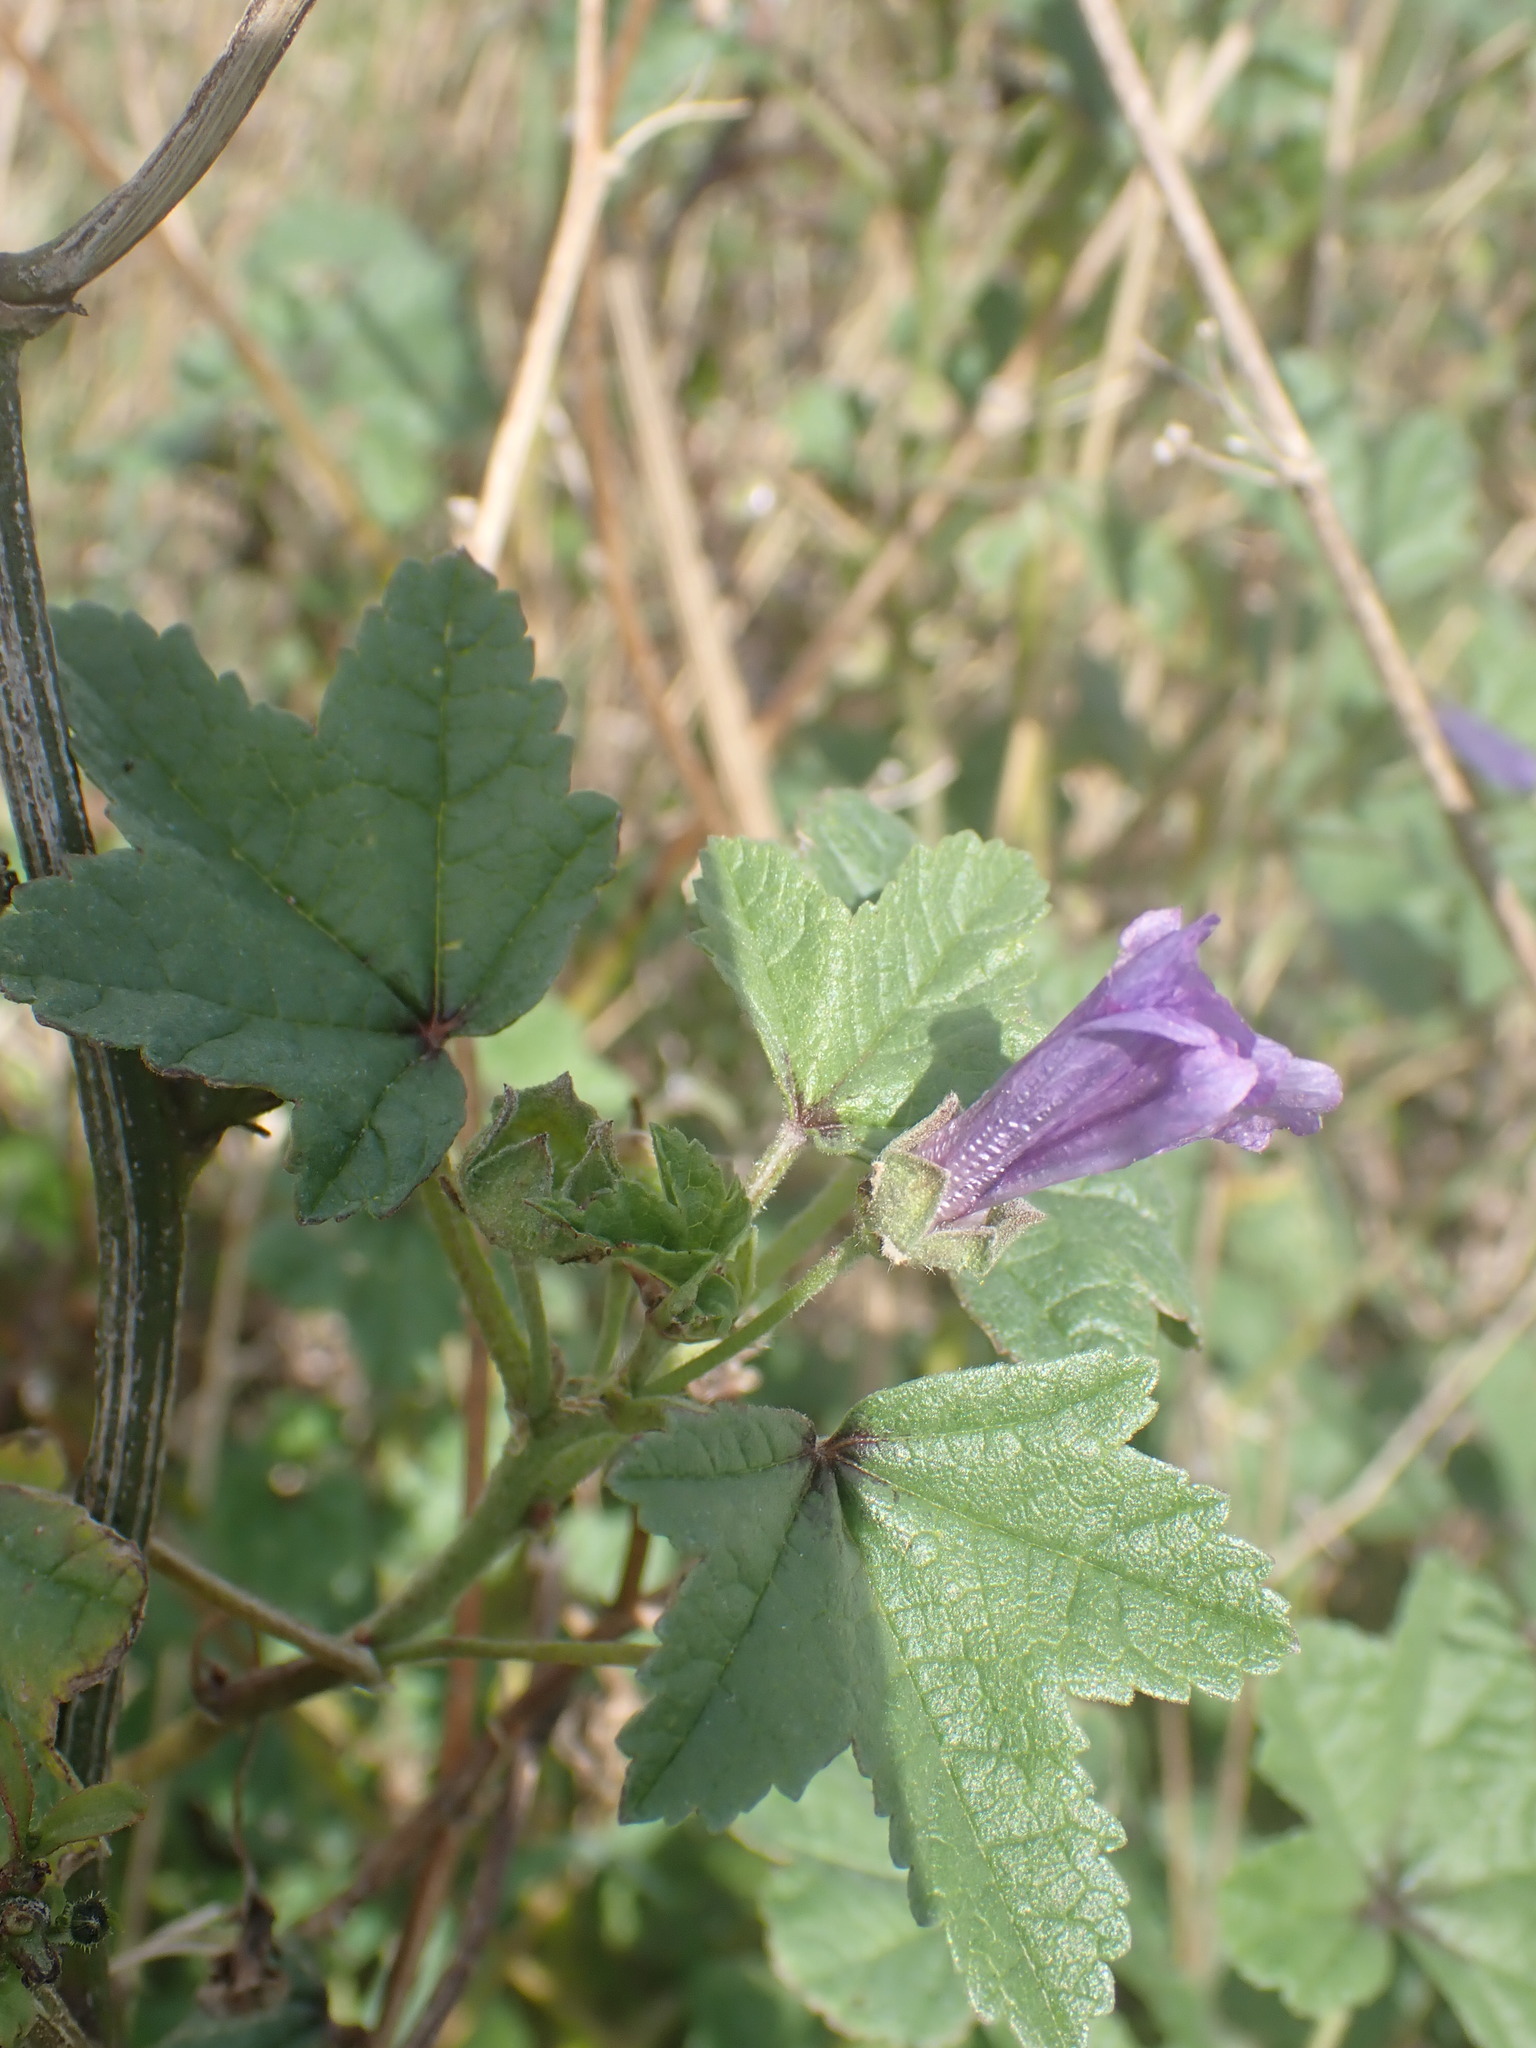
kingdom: Plantae
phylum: Tracheophyta
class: Magnoliopsida
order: Malvales
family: Malvaceae
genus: Malva
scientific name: Malva sylvestris
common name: Common mallow
